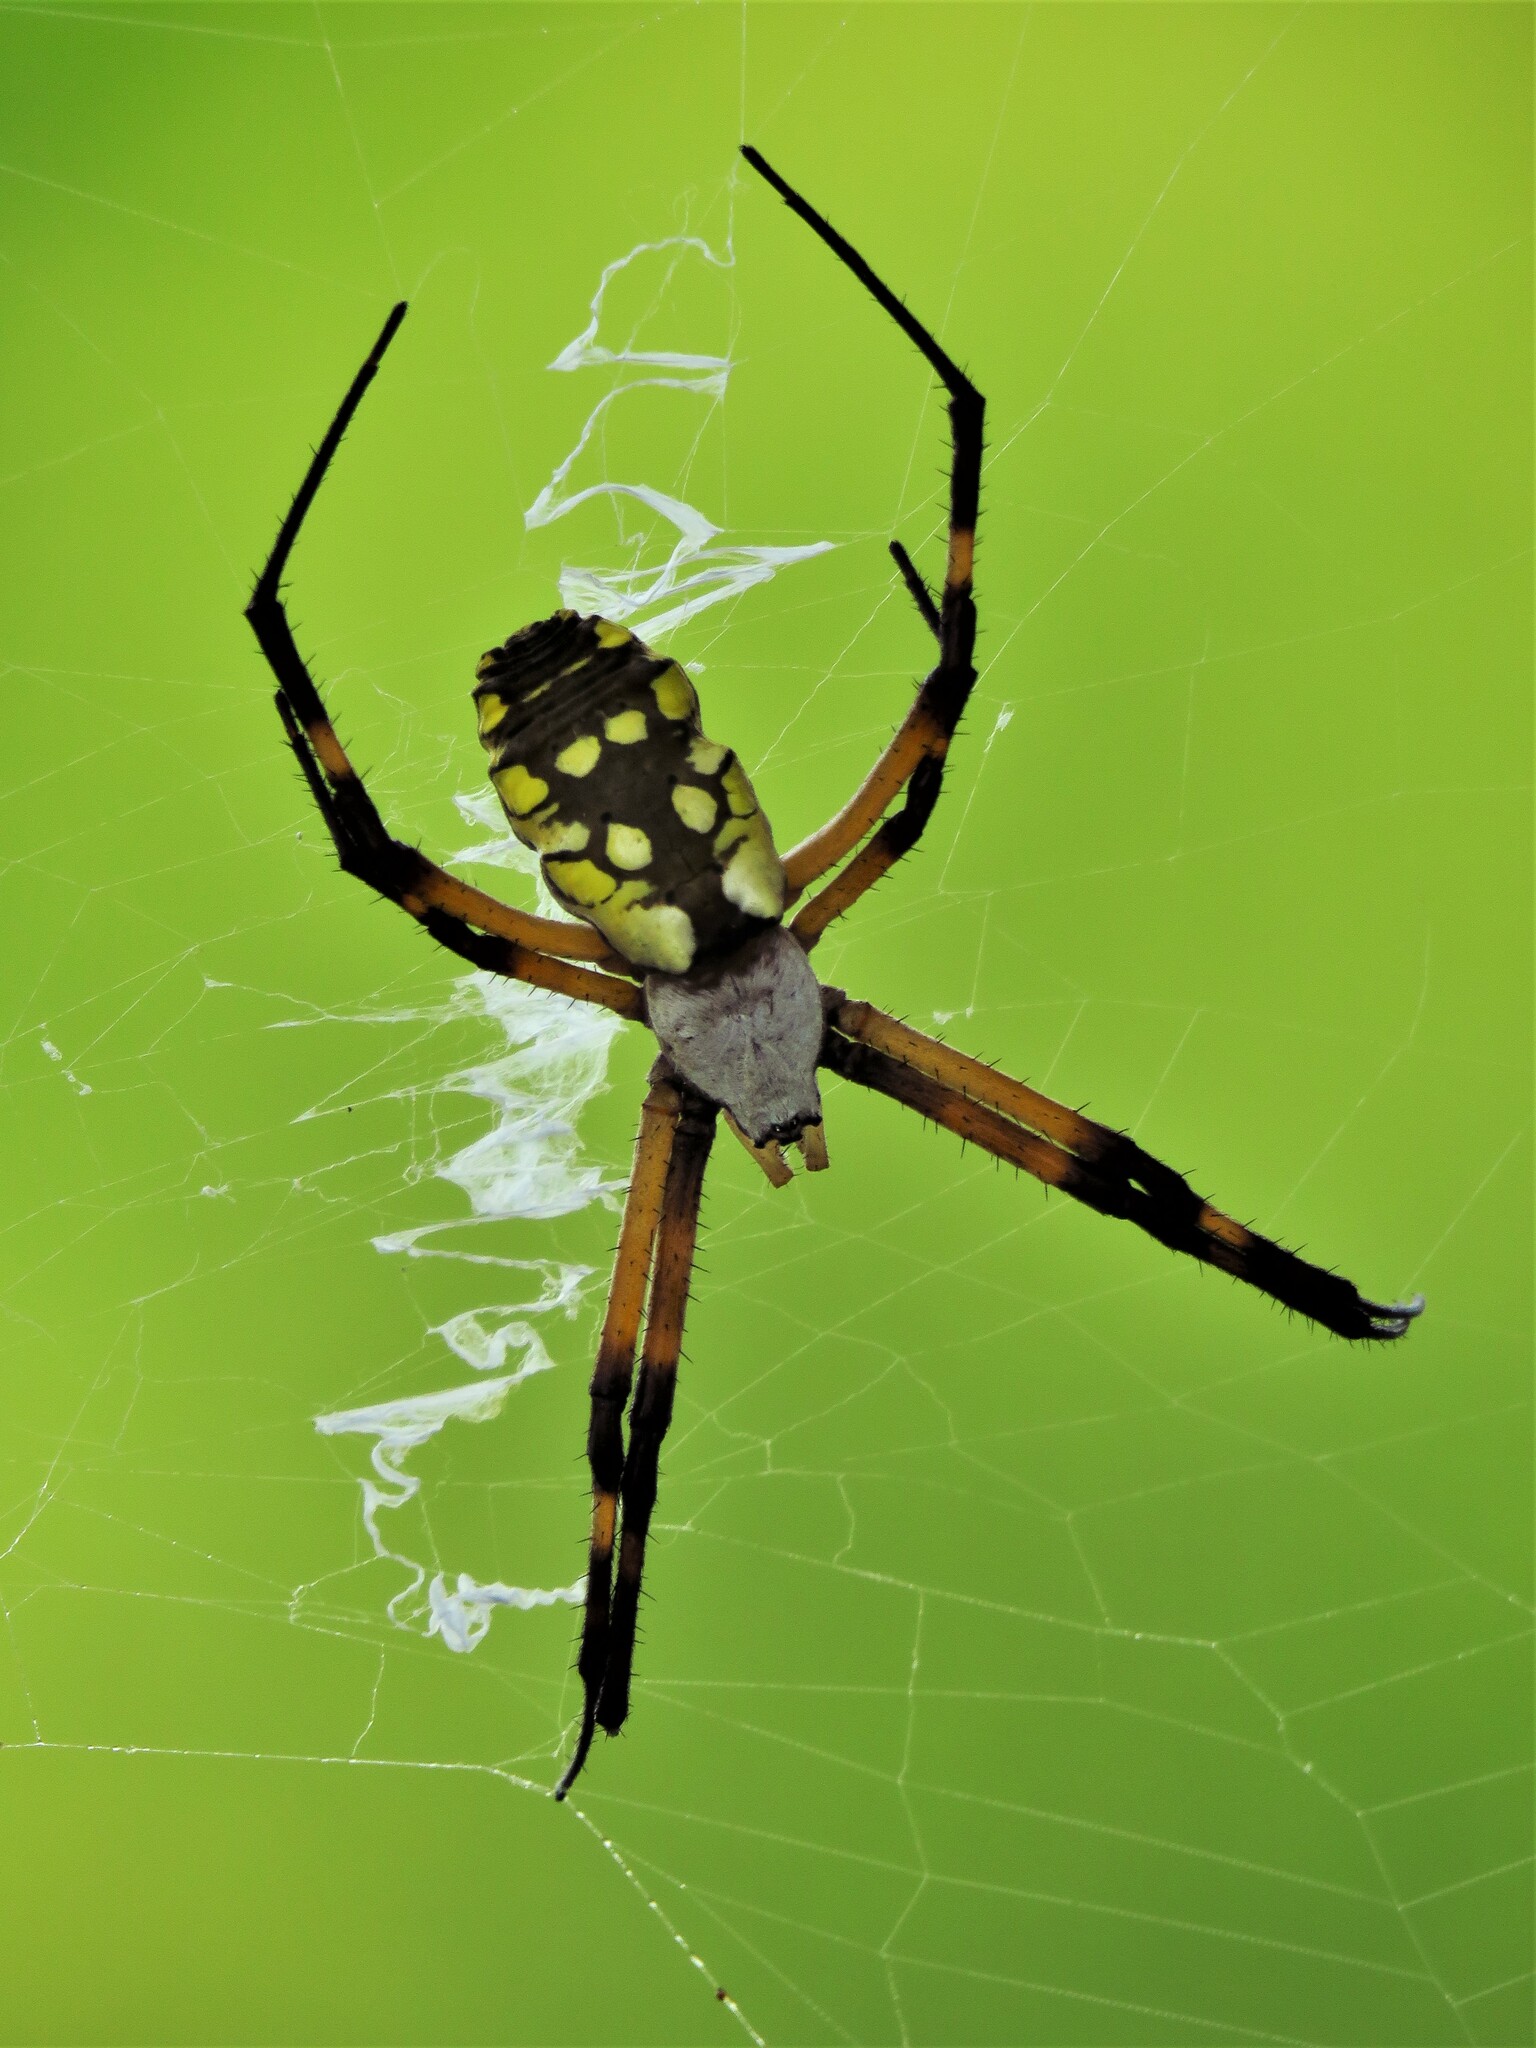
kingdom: Animalia
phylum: Arthropoda
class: Arachnida
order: Araneae
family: Araneidae
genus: Argiope
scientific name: Argiope aurantia
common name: Orb weavers
